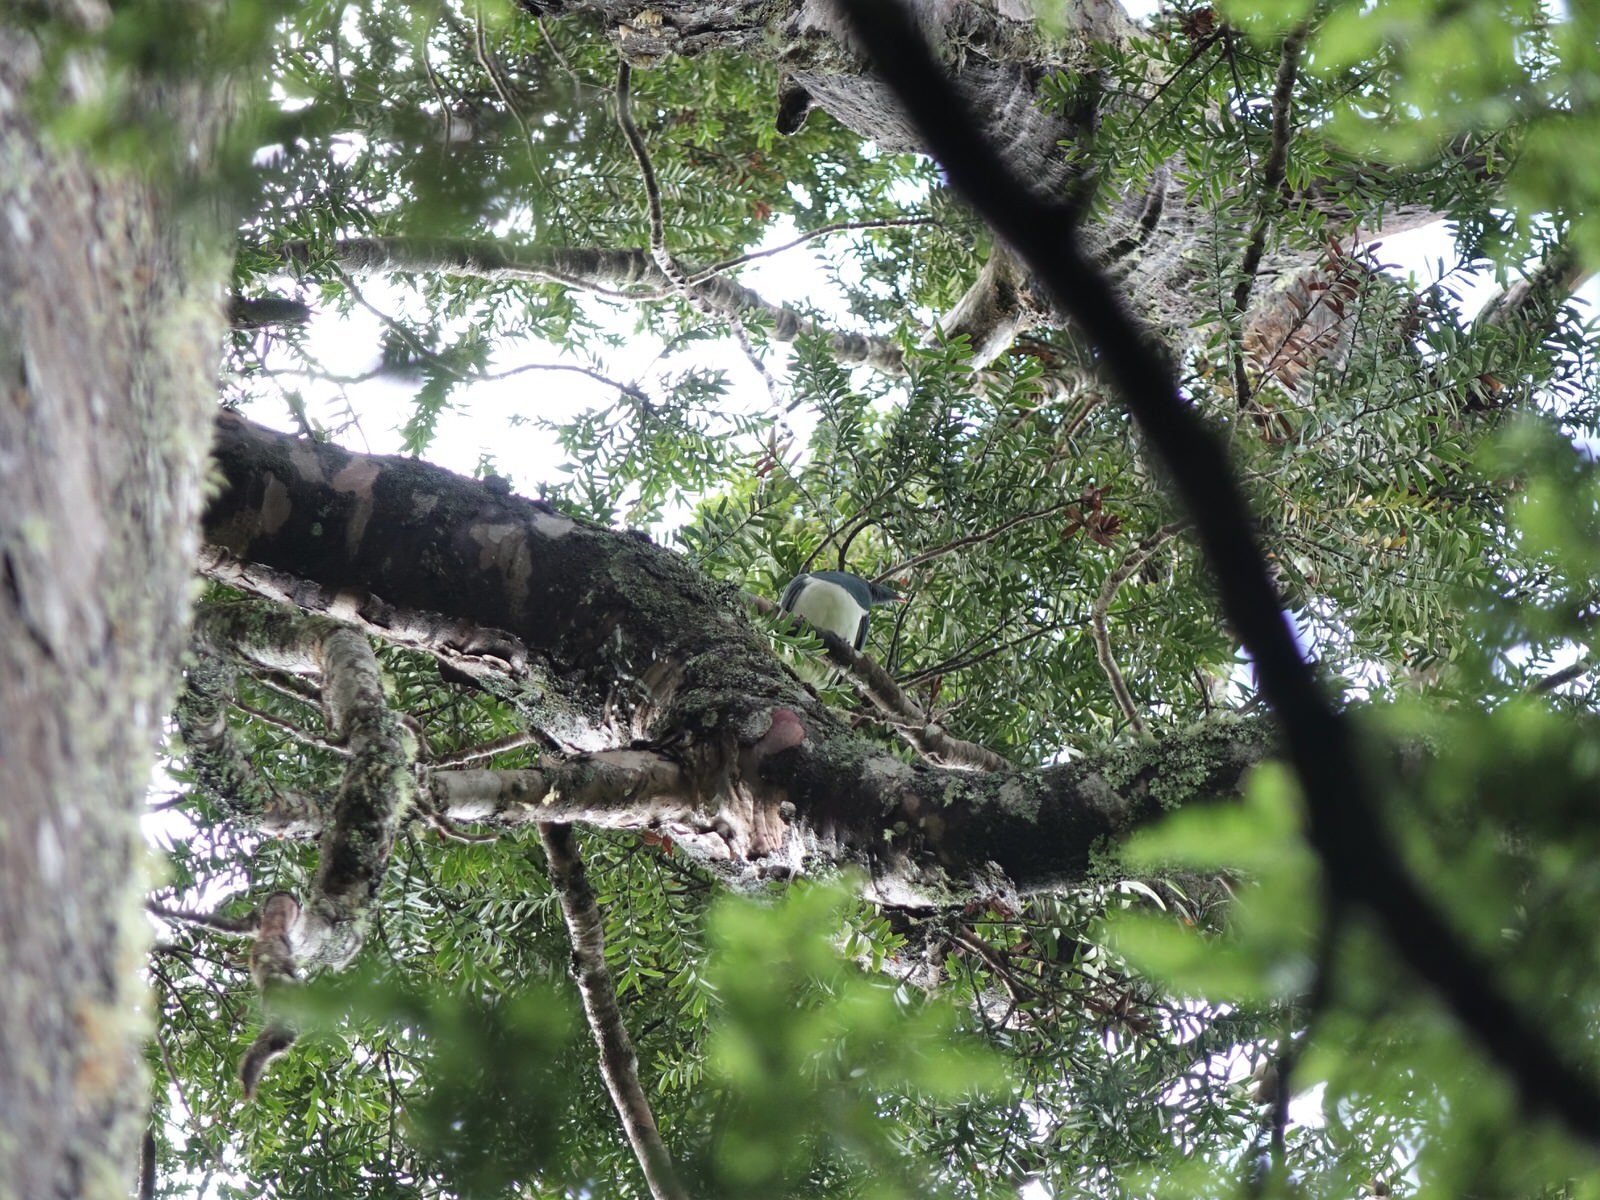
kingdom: Animalia
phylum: Chordata
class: Aves
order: Columbiformes
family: Columbidae
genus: Hemiphaga
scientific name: Hemiphaga novaeseelandiae
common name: New zealand pigeon
